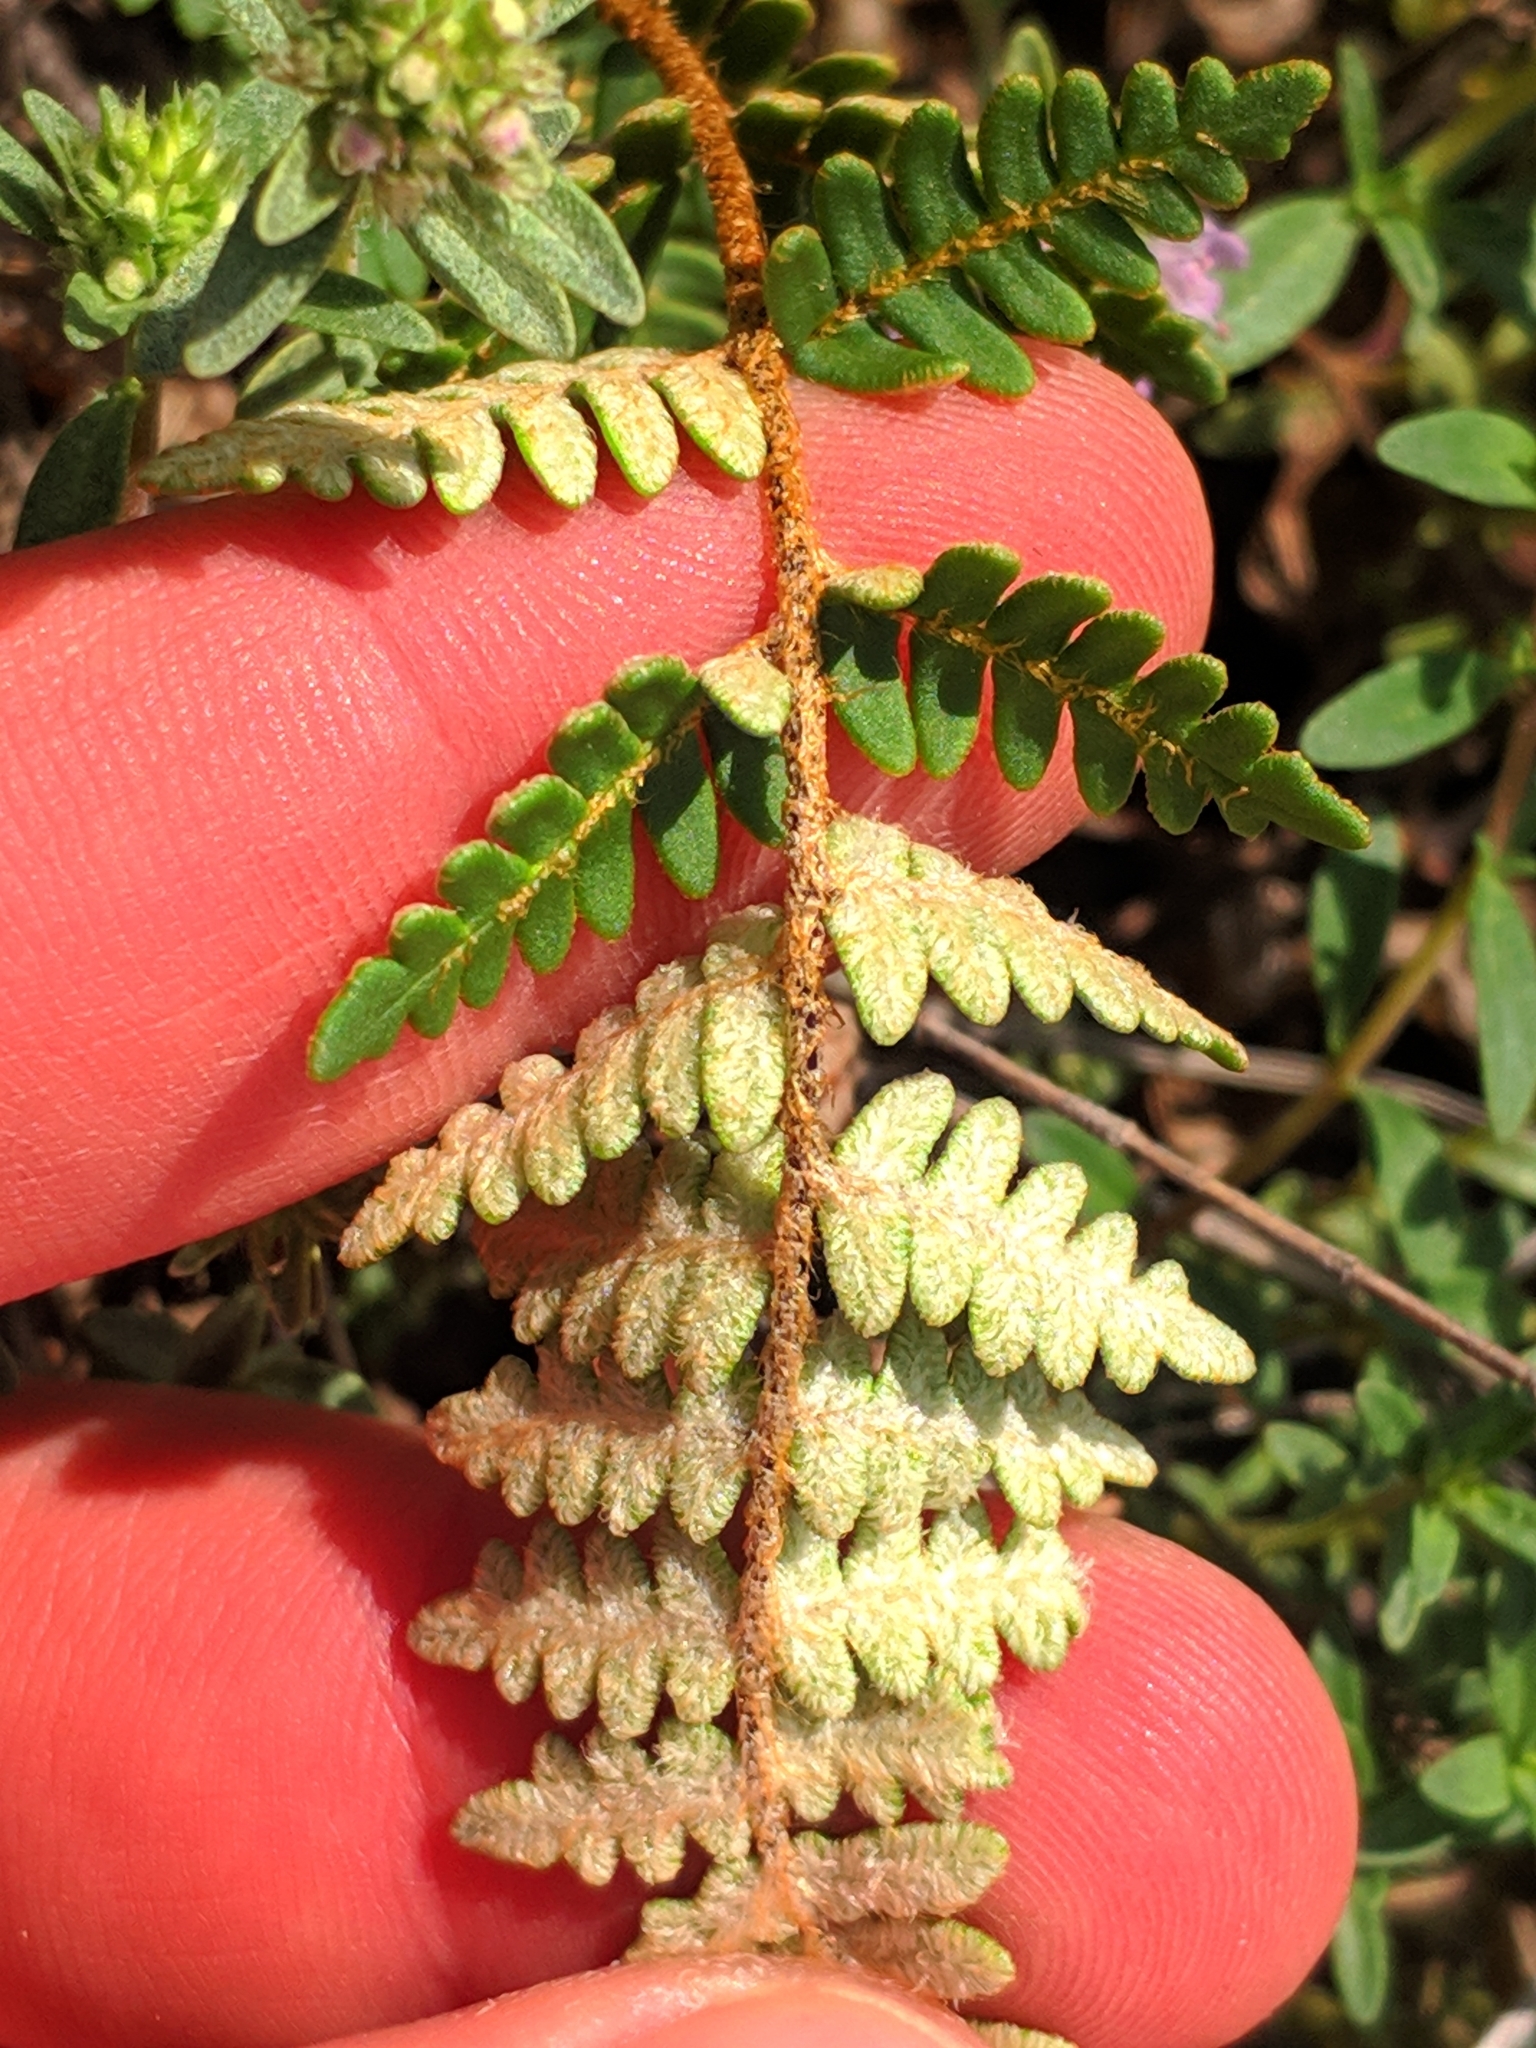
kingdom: Plantae
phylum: Tracheophyta
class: Polypodiopsida
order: Polypodiales
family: Pteridaceae
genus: Paragymnopteris
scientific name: Paragymnopteris marantae
